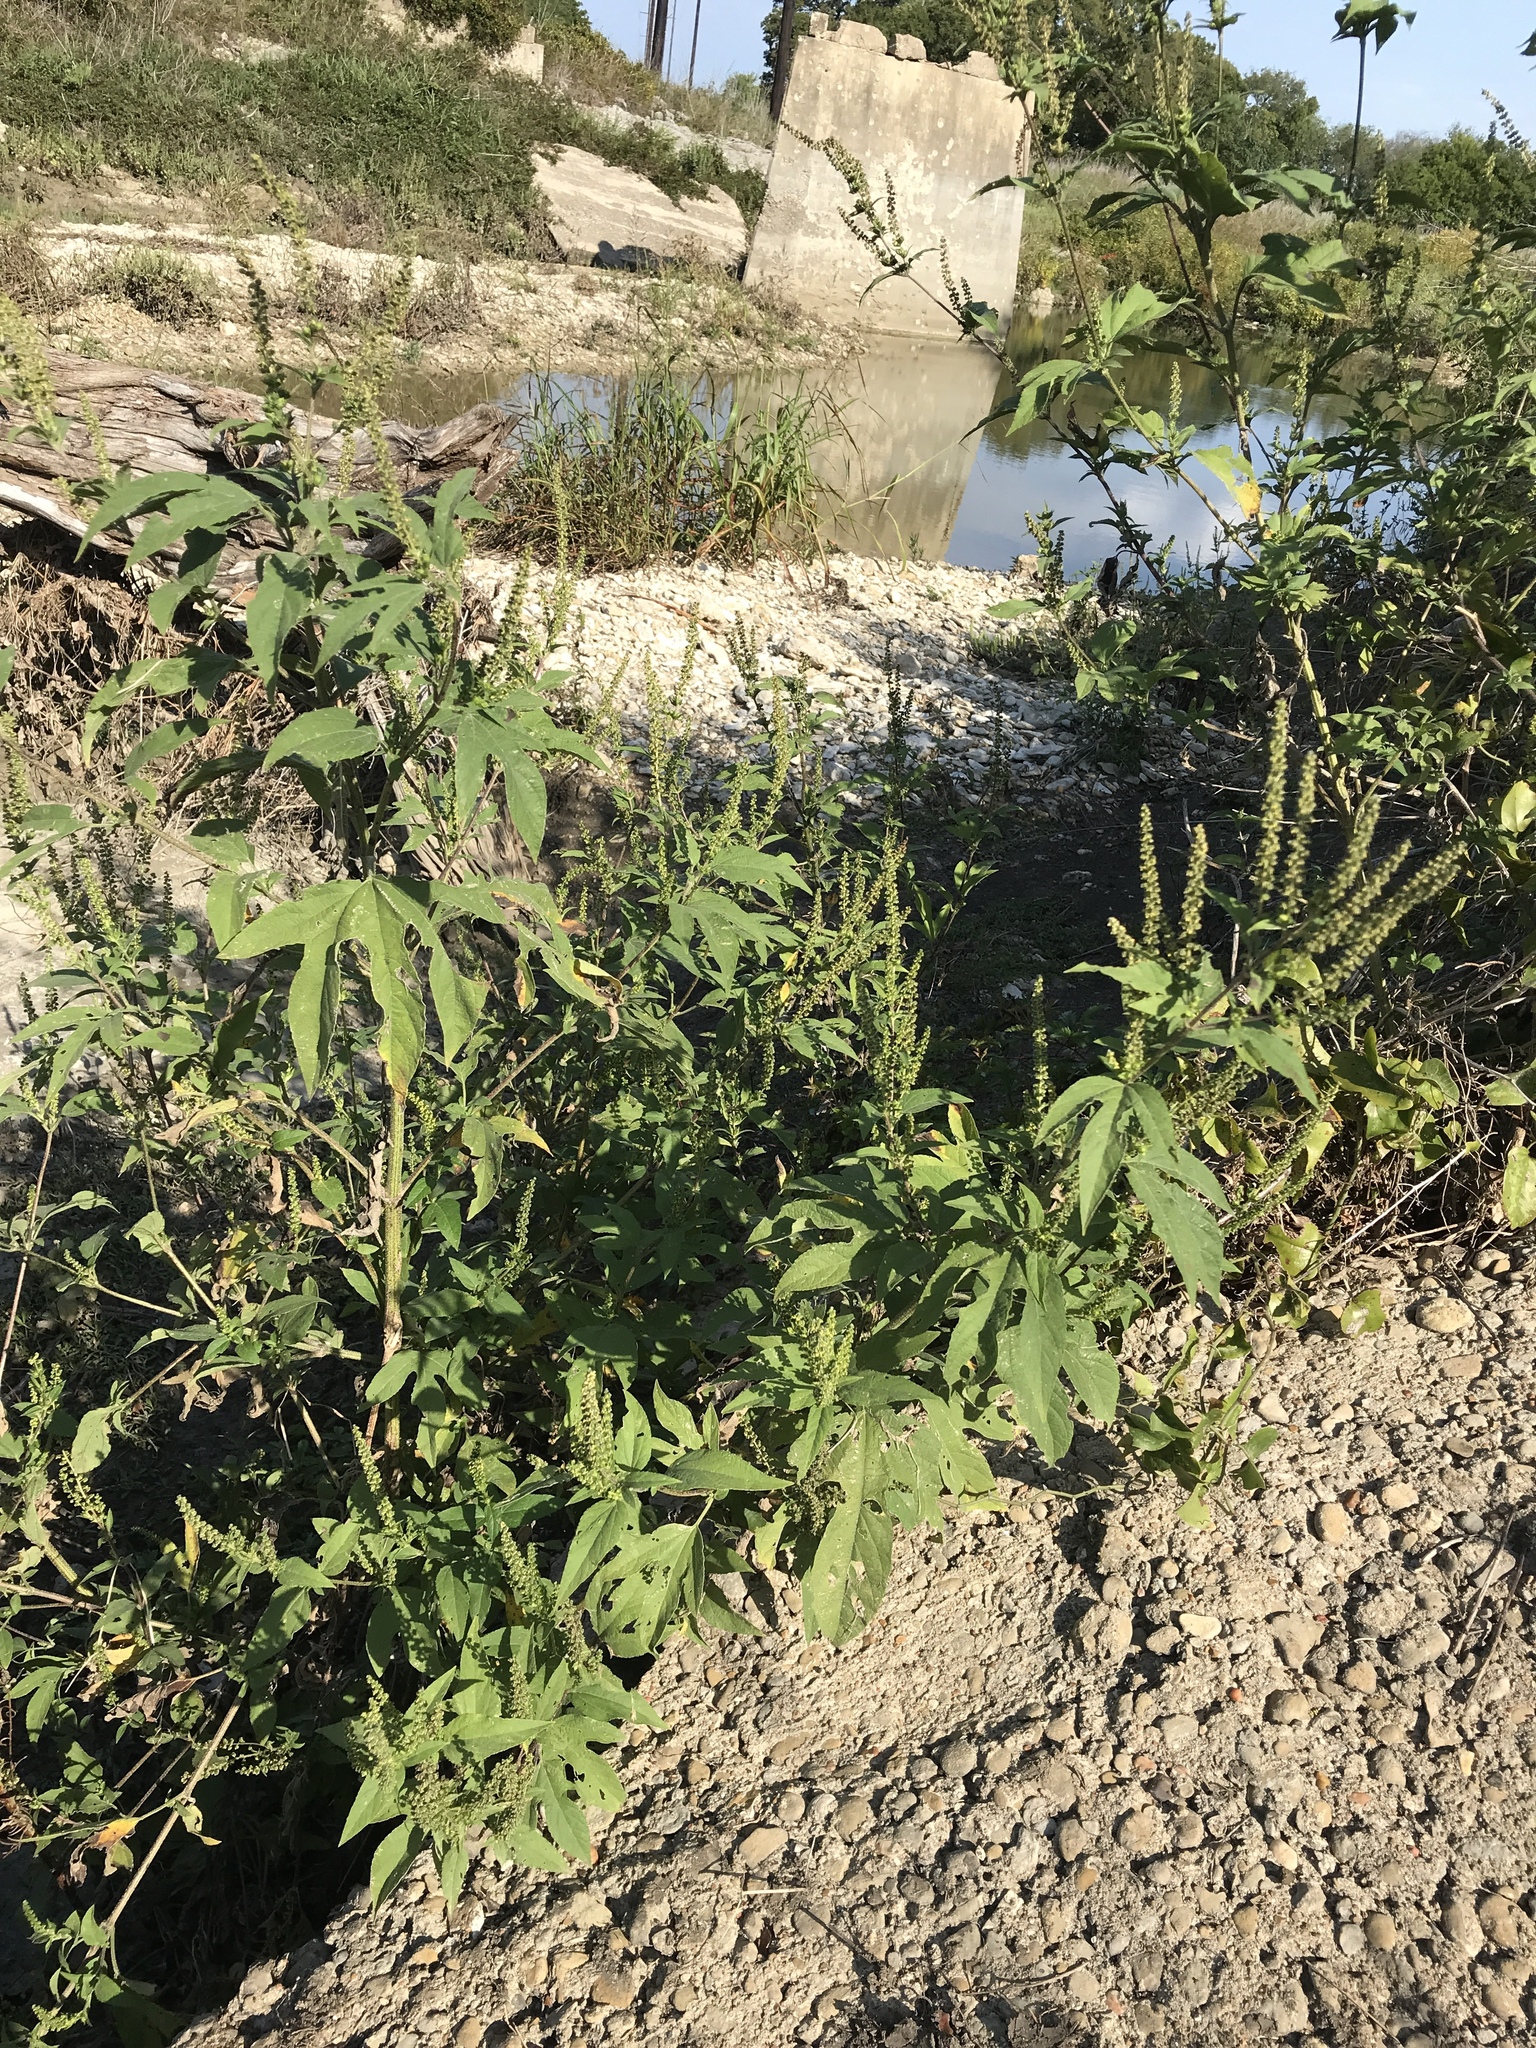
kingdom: Plantae
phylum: Tracheophyta
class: Magnoliopsida
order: Asterales
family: Asteraceae
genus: Ambrosia
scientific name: Ambrosia trifida
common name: Giant ragweed
